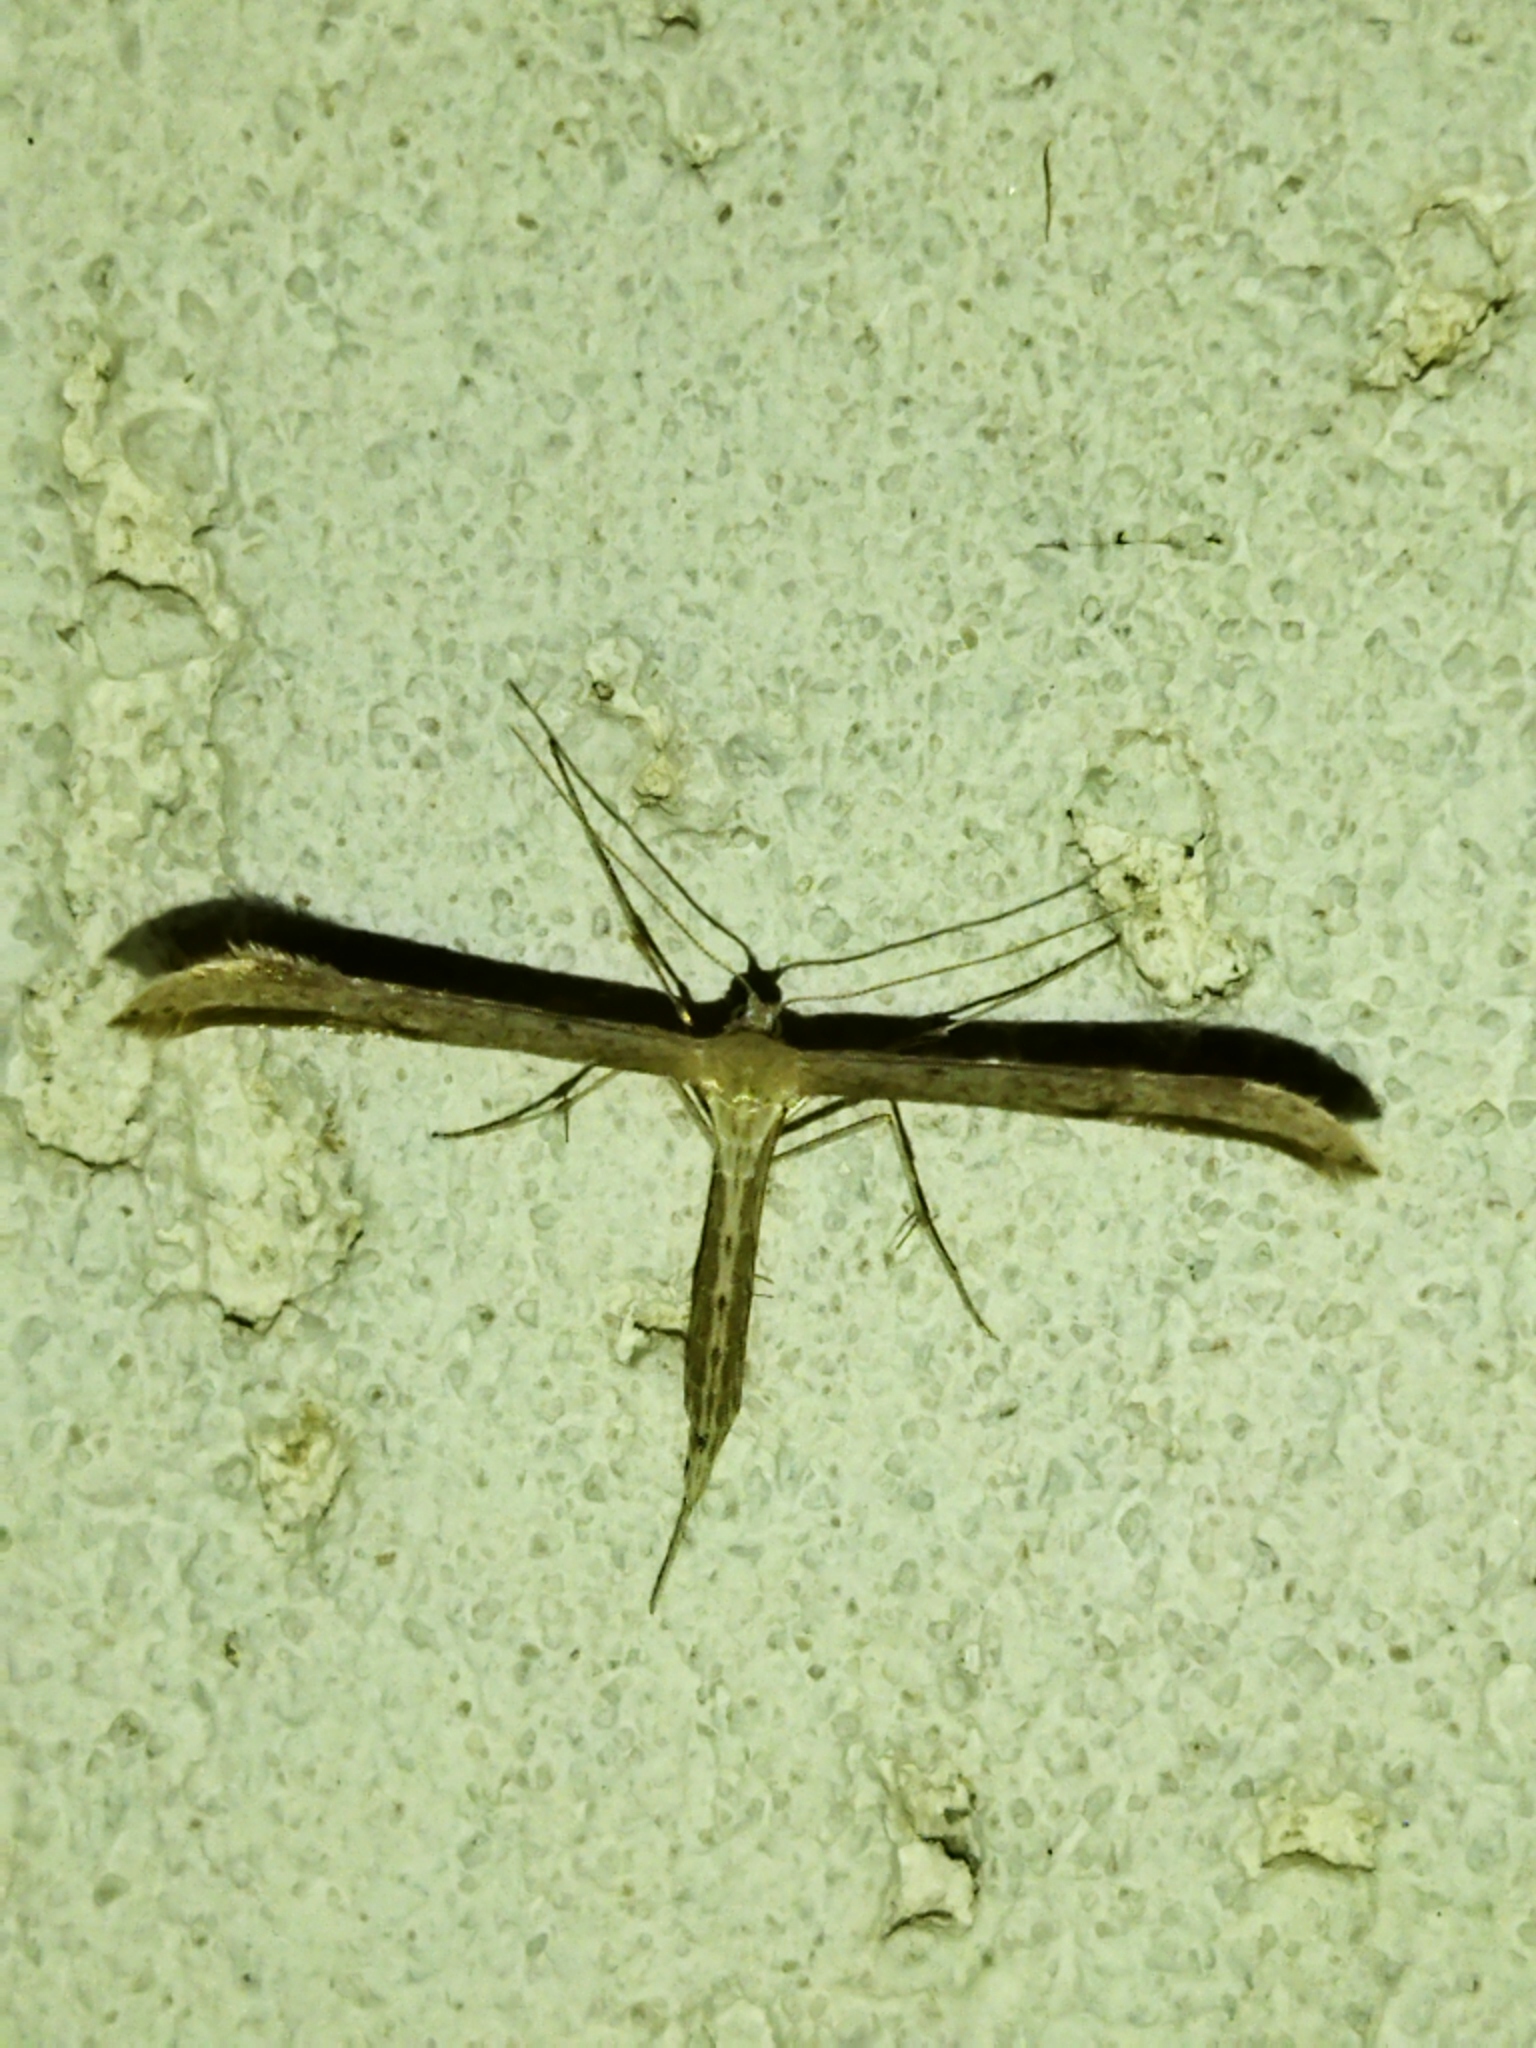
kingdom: Animalia
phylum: Arthropoda
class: Insecta
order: Lepidoptera
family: Pterophoridae
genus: Emmelina
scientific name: Emmelina monodactyla
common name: Common plume
